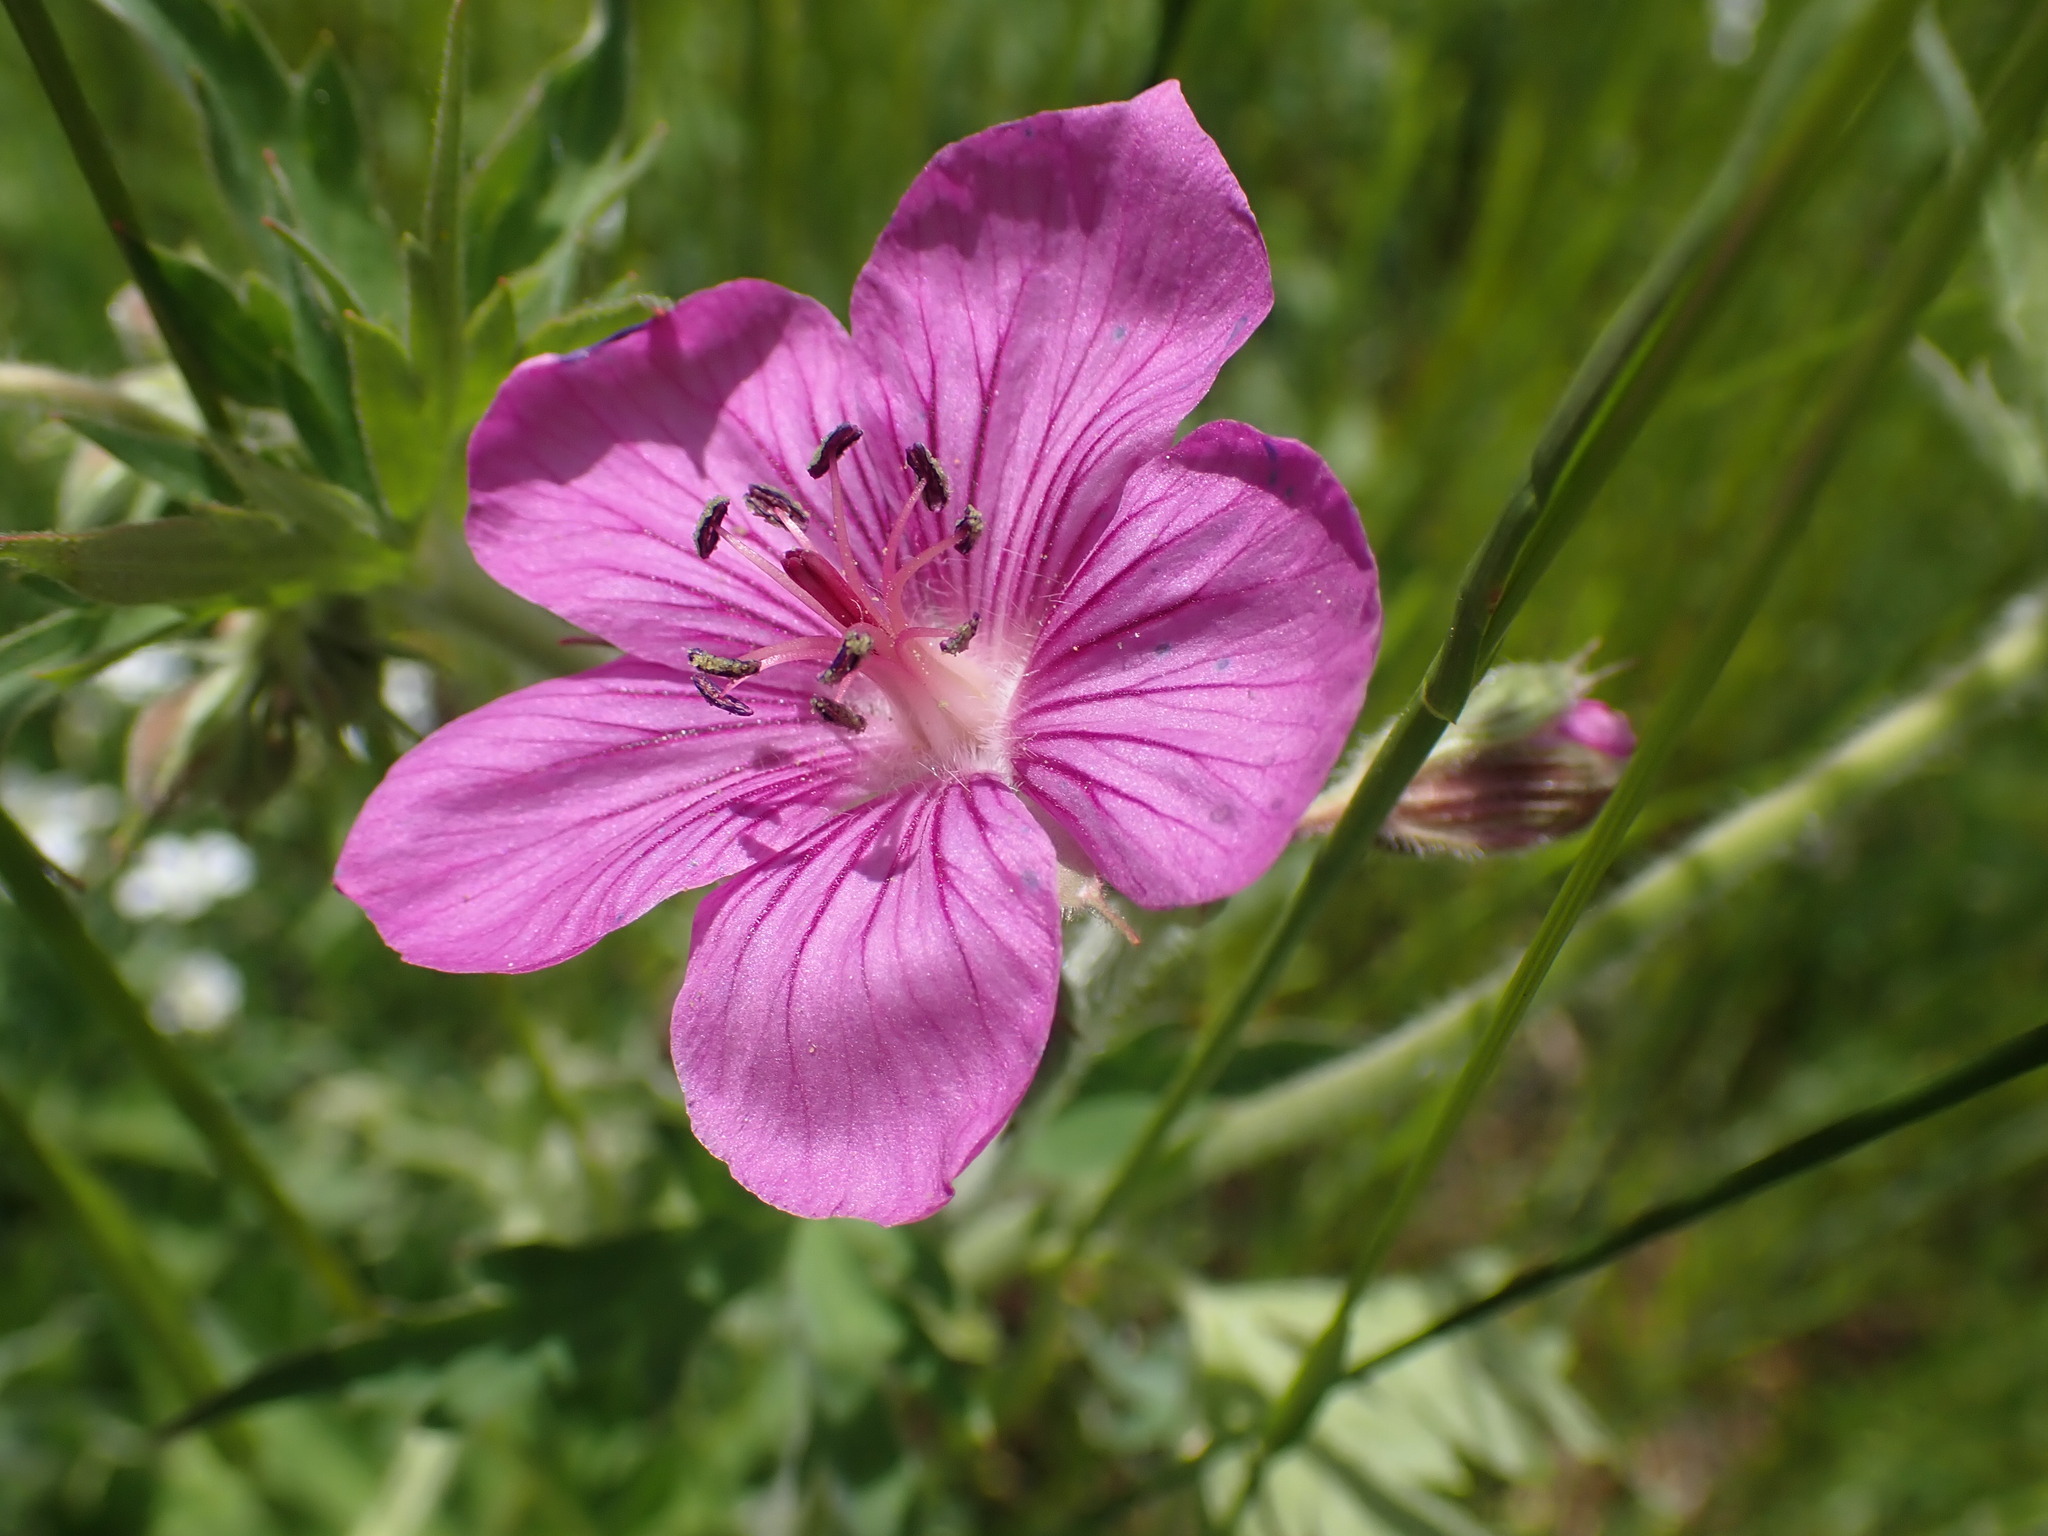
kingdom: Plantae
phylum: Tracheophyta
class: Magnoliopsida
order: Geraniales
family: Geraniaceae
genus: Geranium
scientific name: Geranium viscosissimum
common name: Purple geranium
